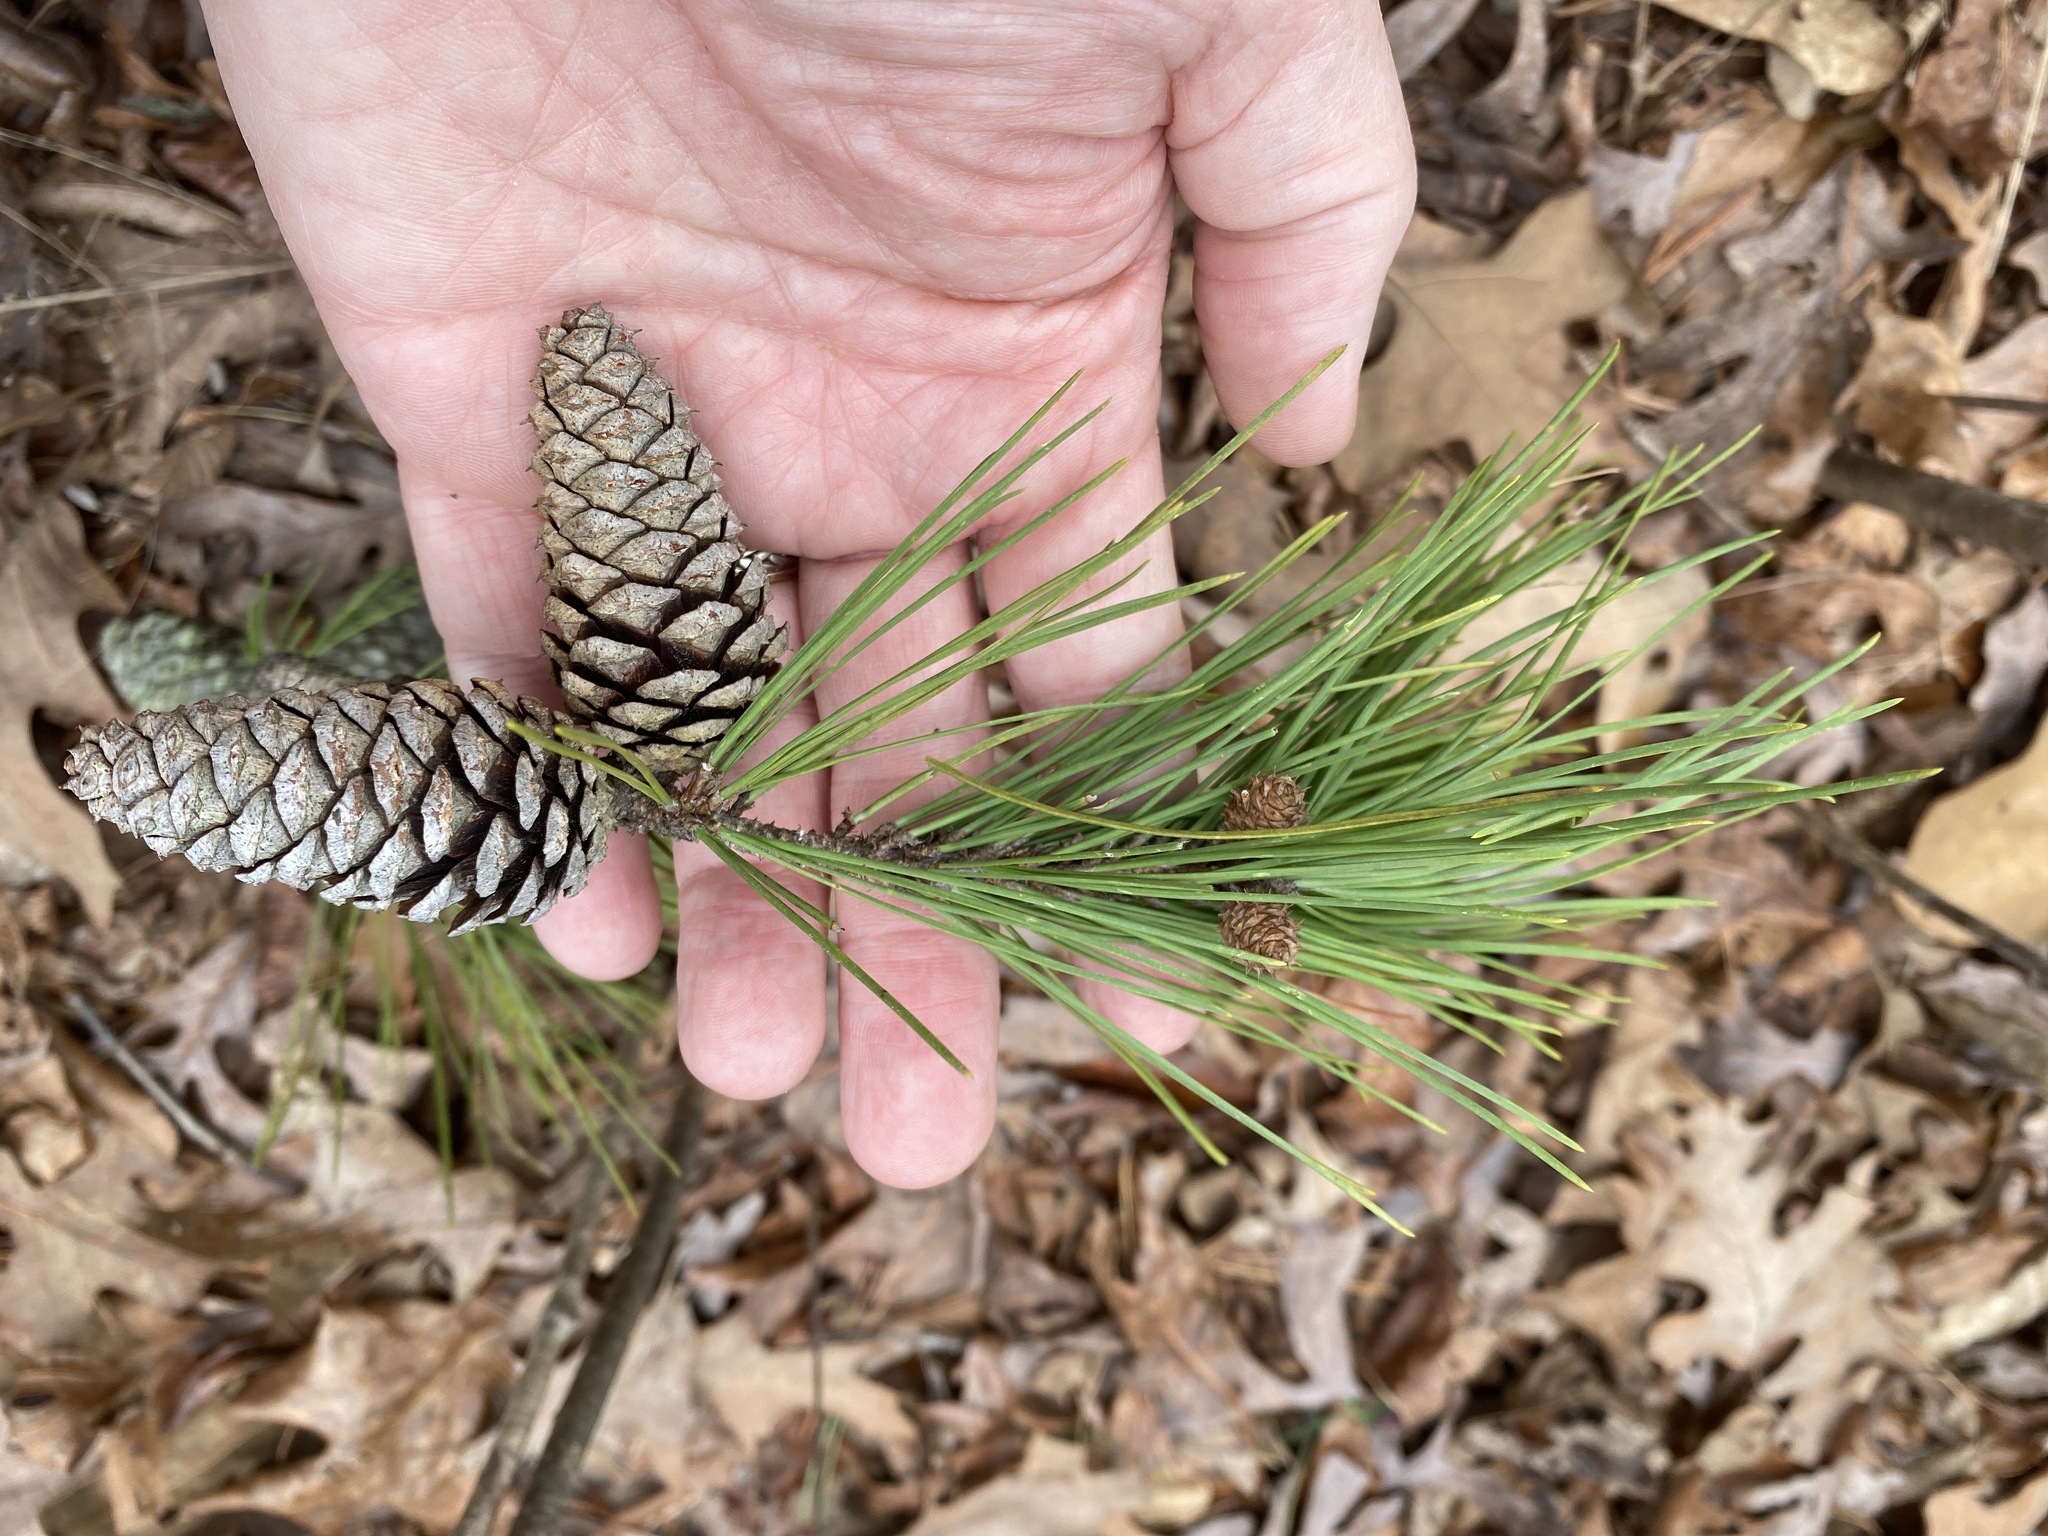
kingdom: Plantae
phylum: Tracheophyta
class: Pinopsida
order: Pinales
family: Pinaceae
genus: Pinus
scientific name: Pinus echinata
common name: Shortleaf pine
